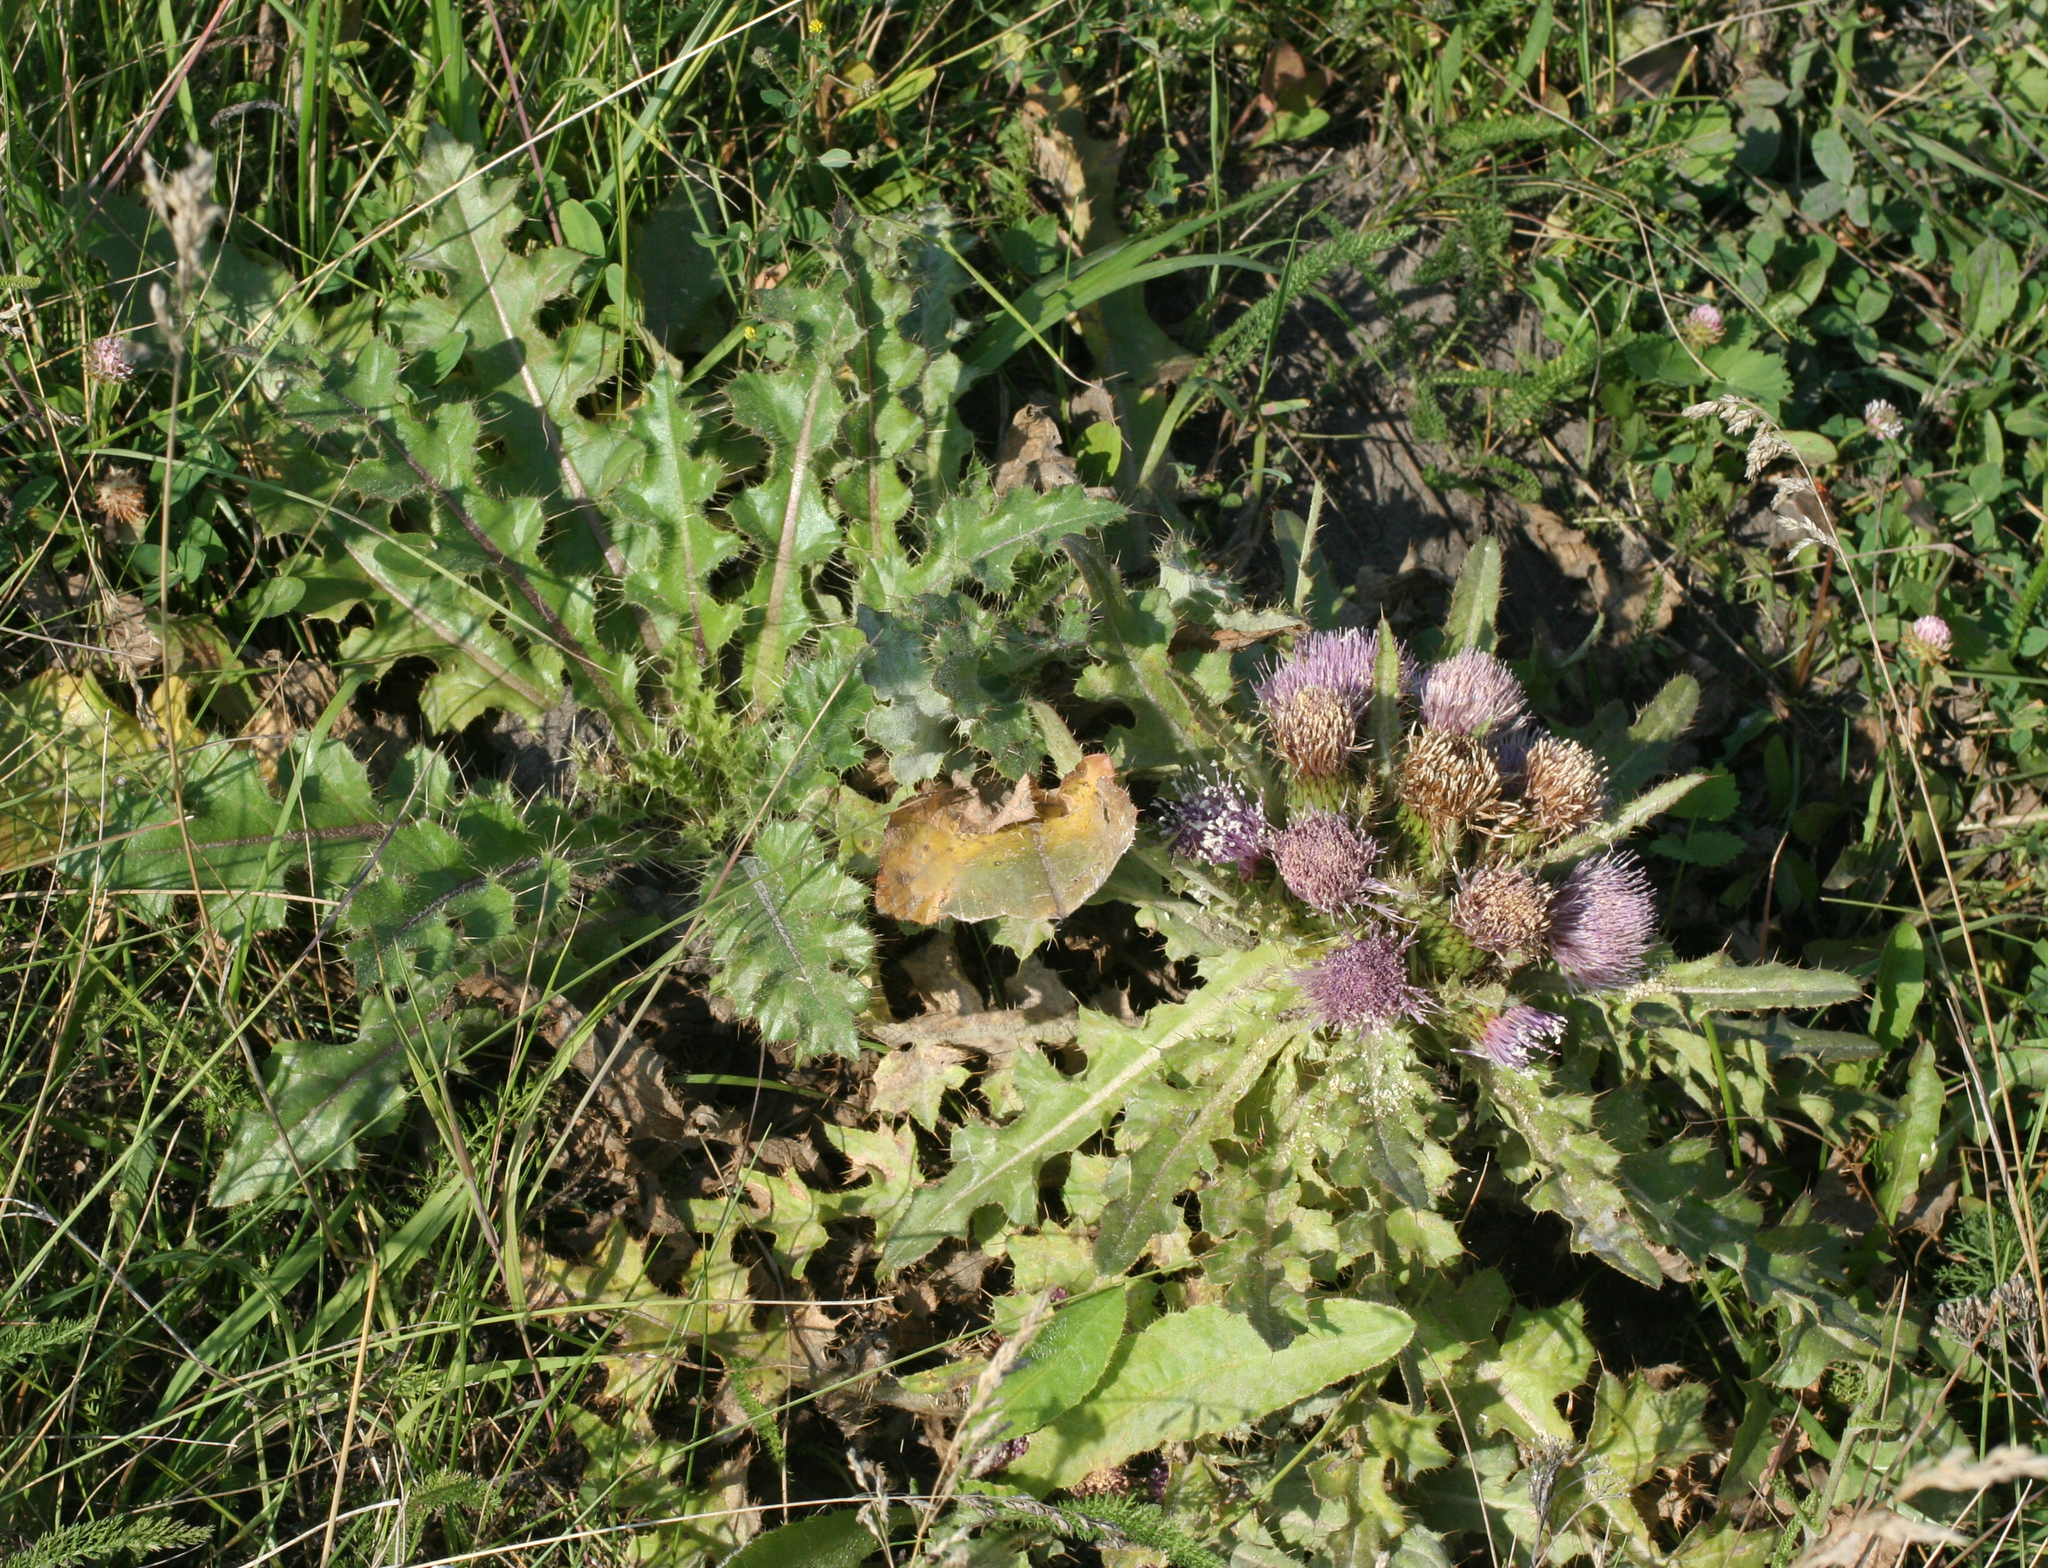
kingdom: Plantae
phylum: Tracheophyta
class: Magnoliopsida
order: Asterales
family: Asteraceae
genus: Cirsium
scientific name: Cirsium esculentum
